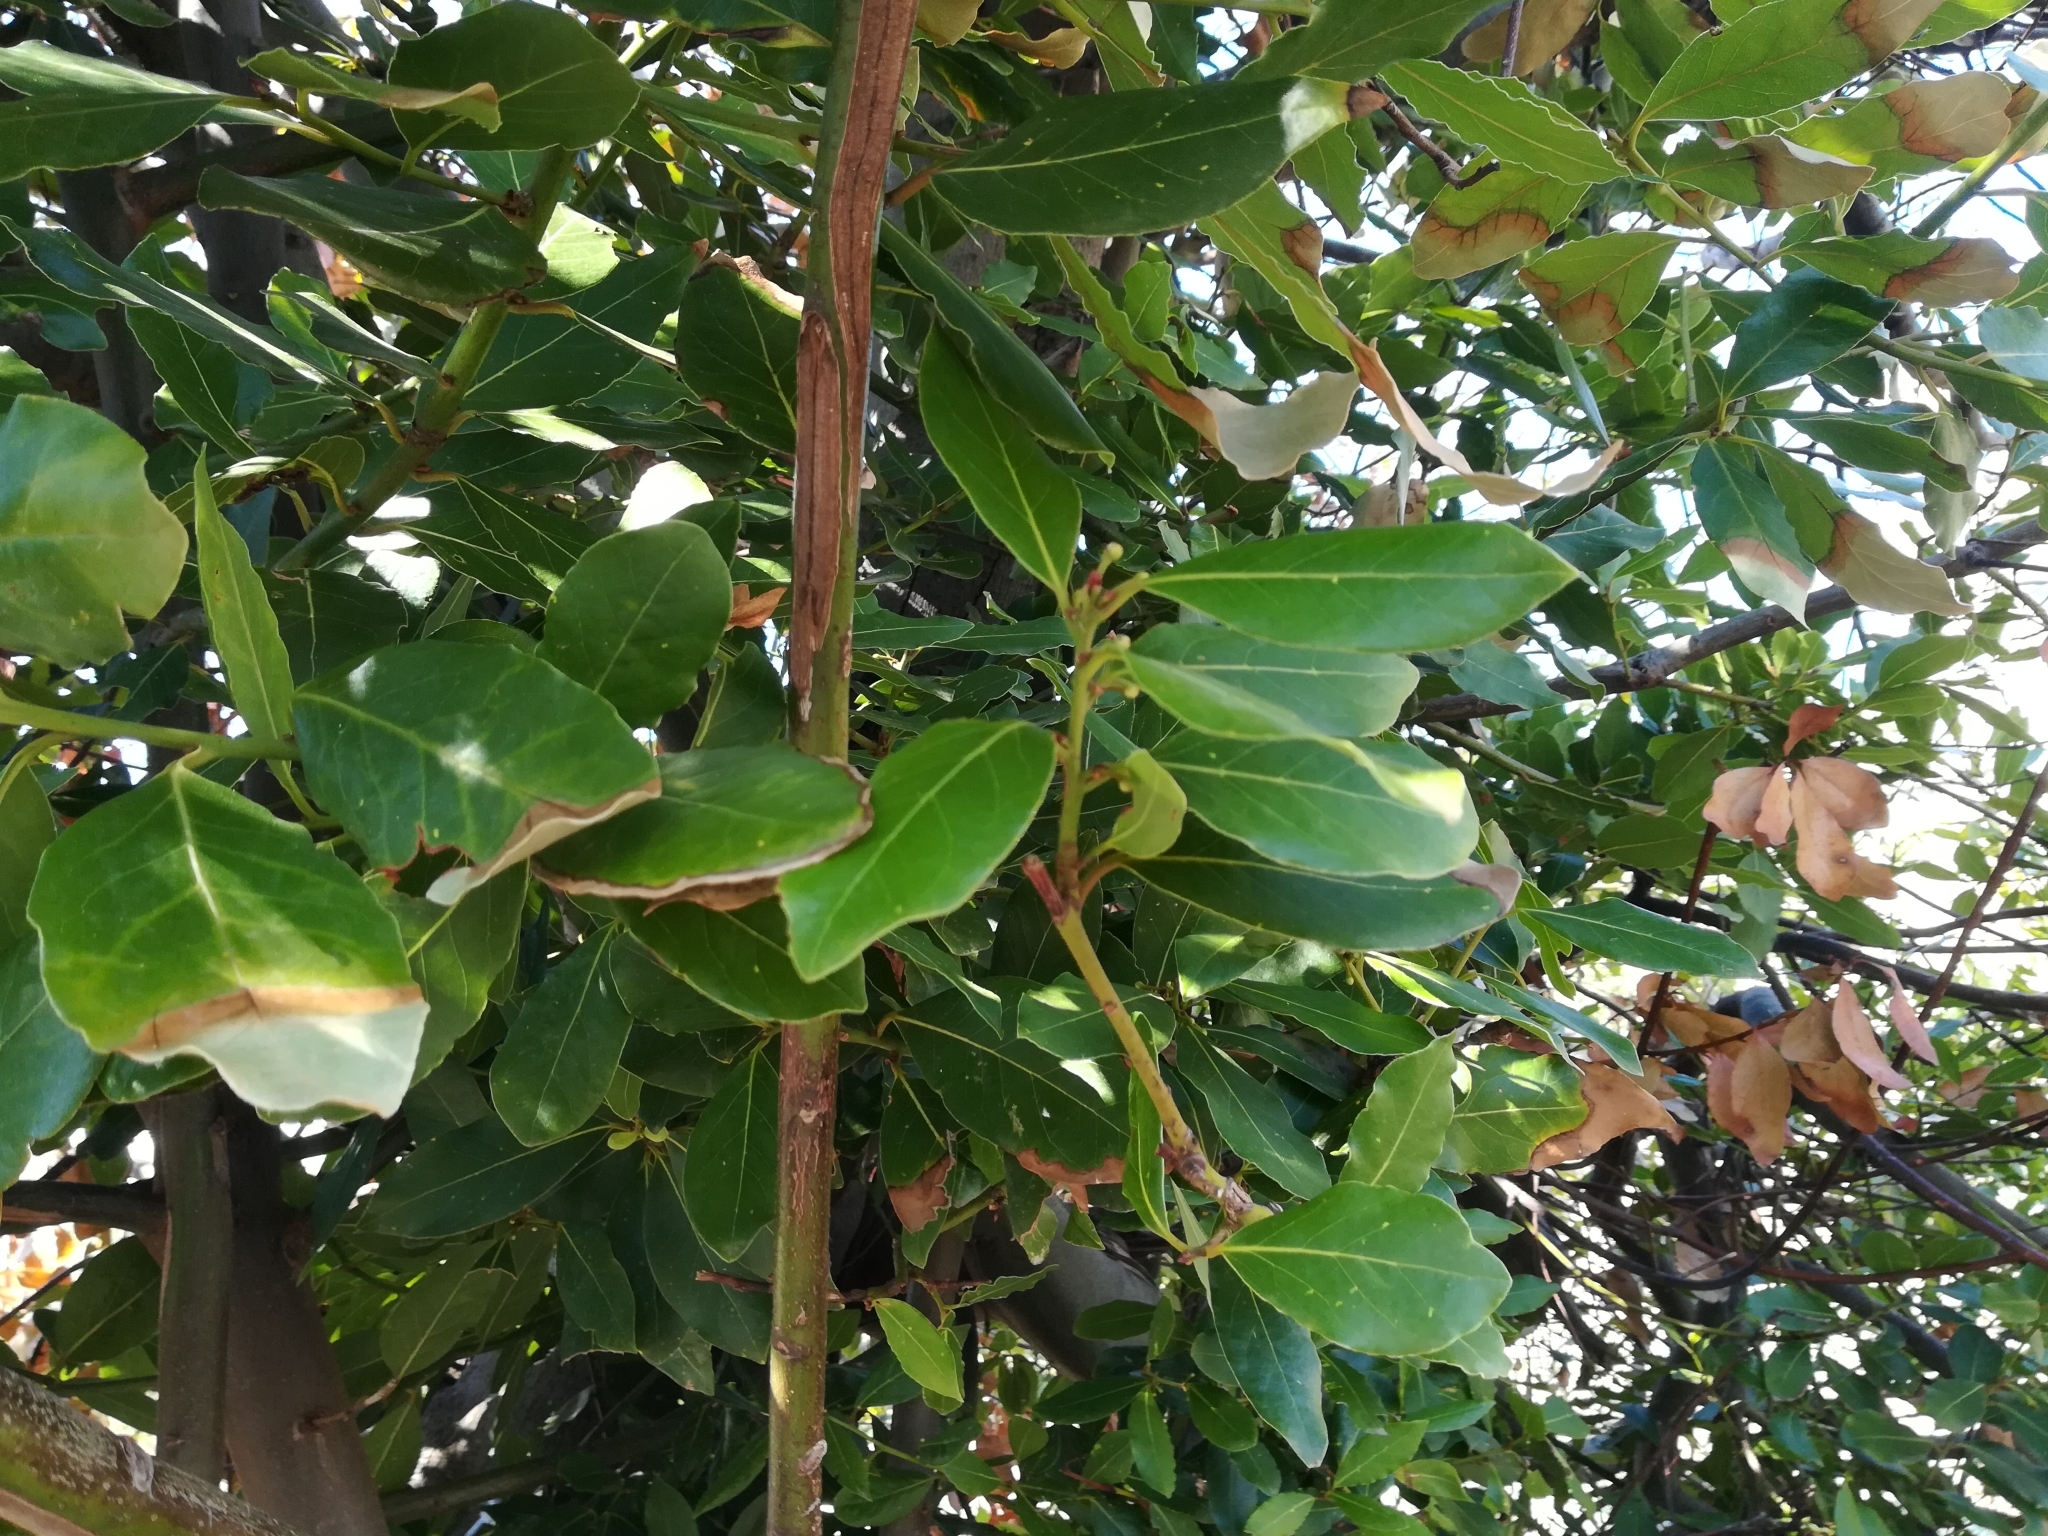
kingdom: Plantae
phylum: Tracheophyta
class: Magnoliopsida
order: Laurales
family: Lauraceae
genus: Laurus
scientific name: Laurus nobilis
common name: Bay
